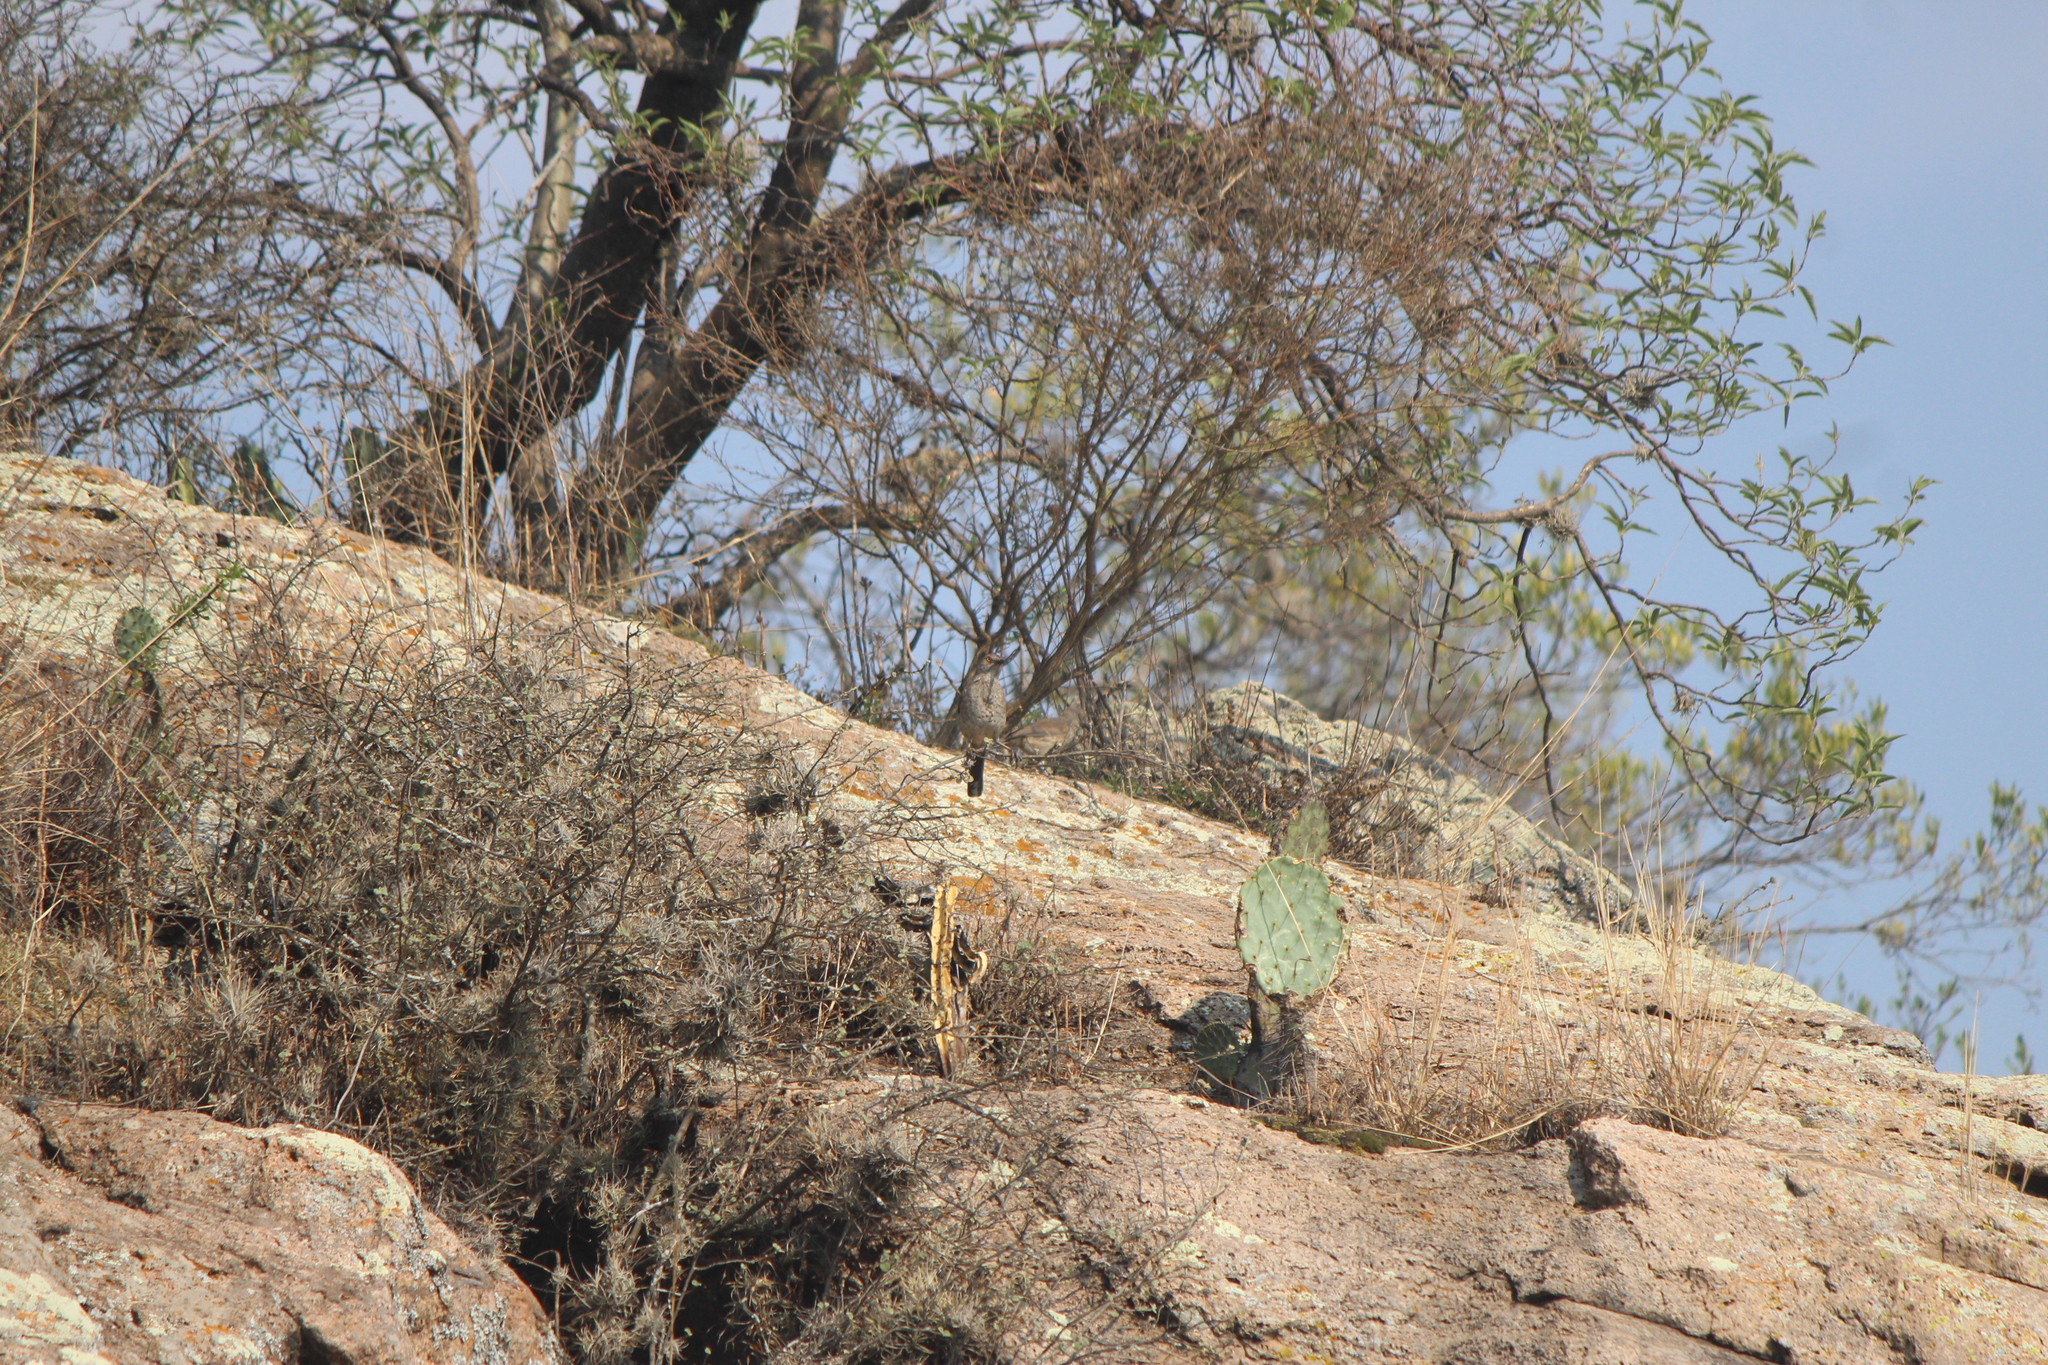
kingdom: Animalia
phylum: Chordata
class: Aves
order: Passeriformes
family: Mimidae
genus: Toxostoma
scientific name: Toxostoma curvirostre
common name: Curve-billed thrasher
